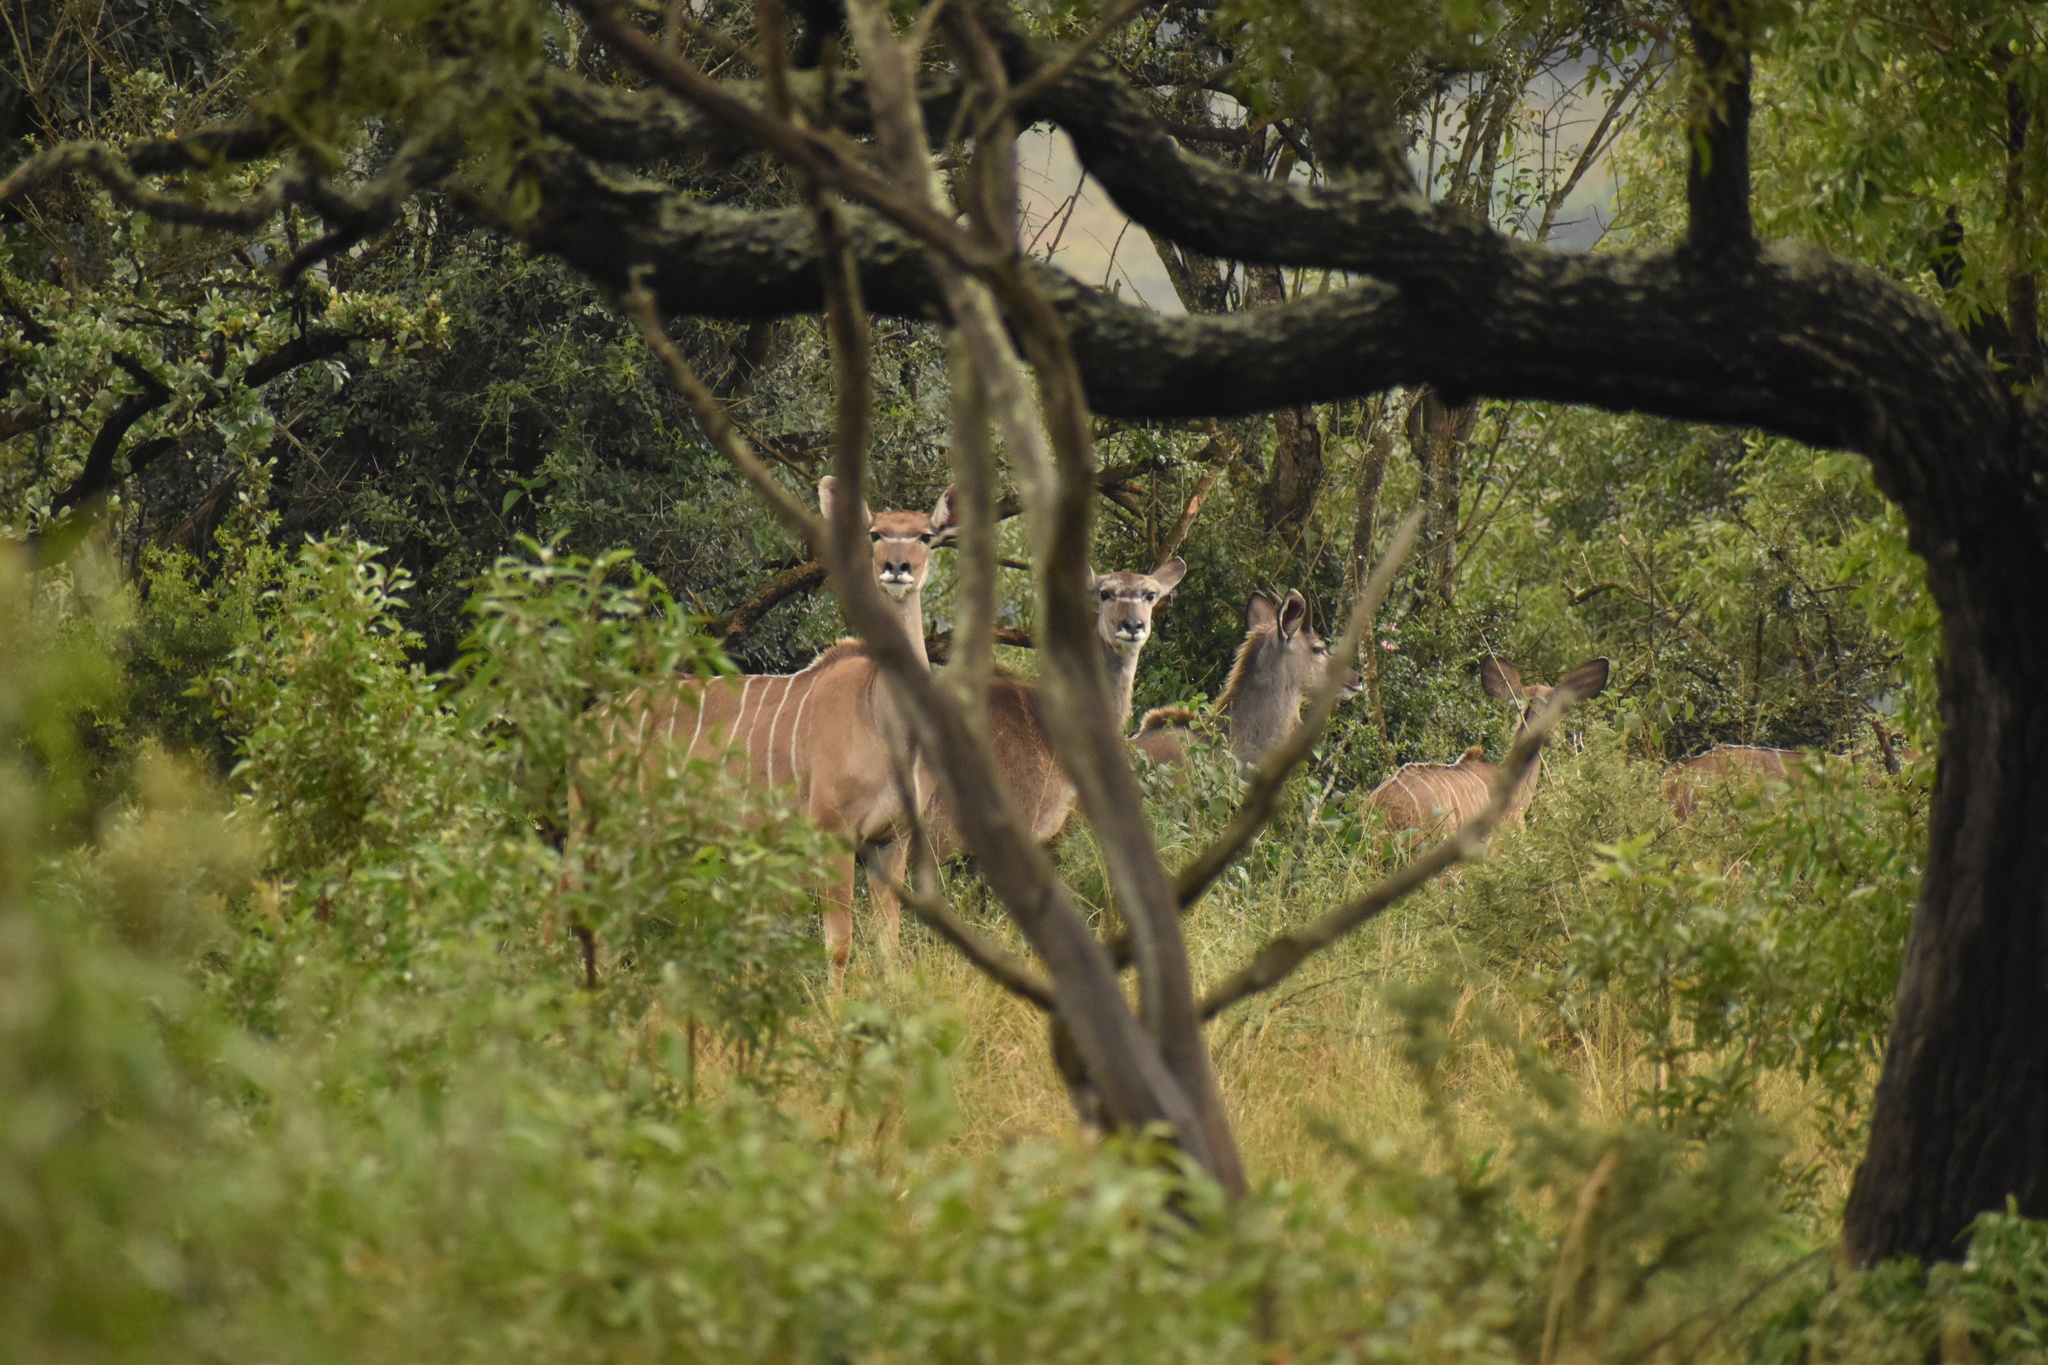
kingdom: Animalia
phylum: Chordata
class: Mammalia
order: Artiodactyla
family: Bovidae
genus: Tragelaphus
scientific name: Tragelaphus strepsiceros
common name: Greater kudu
